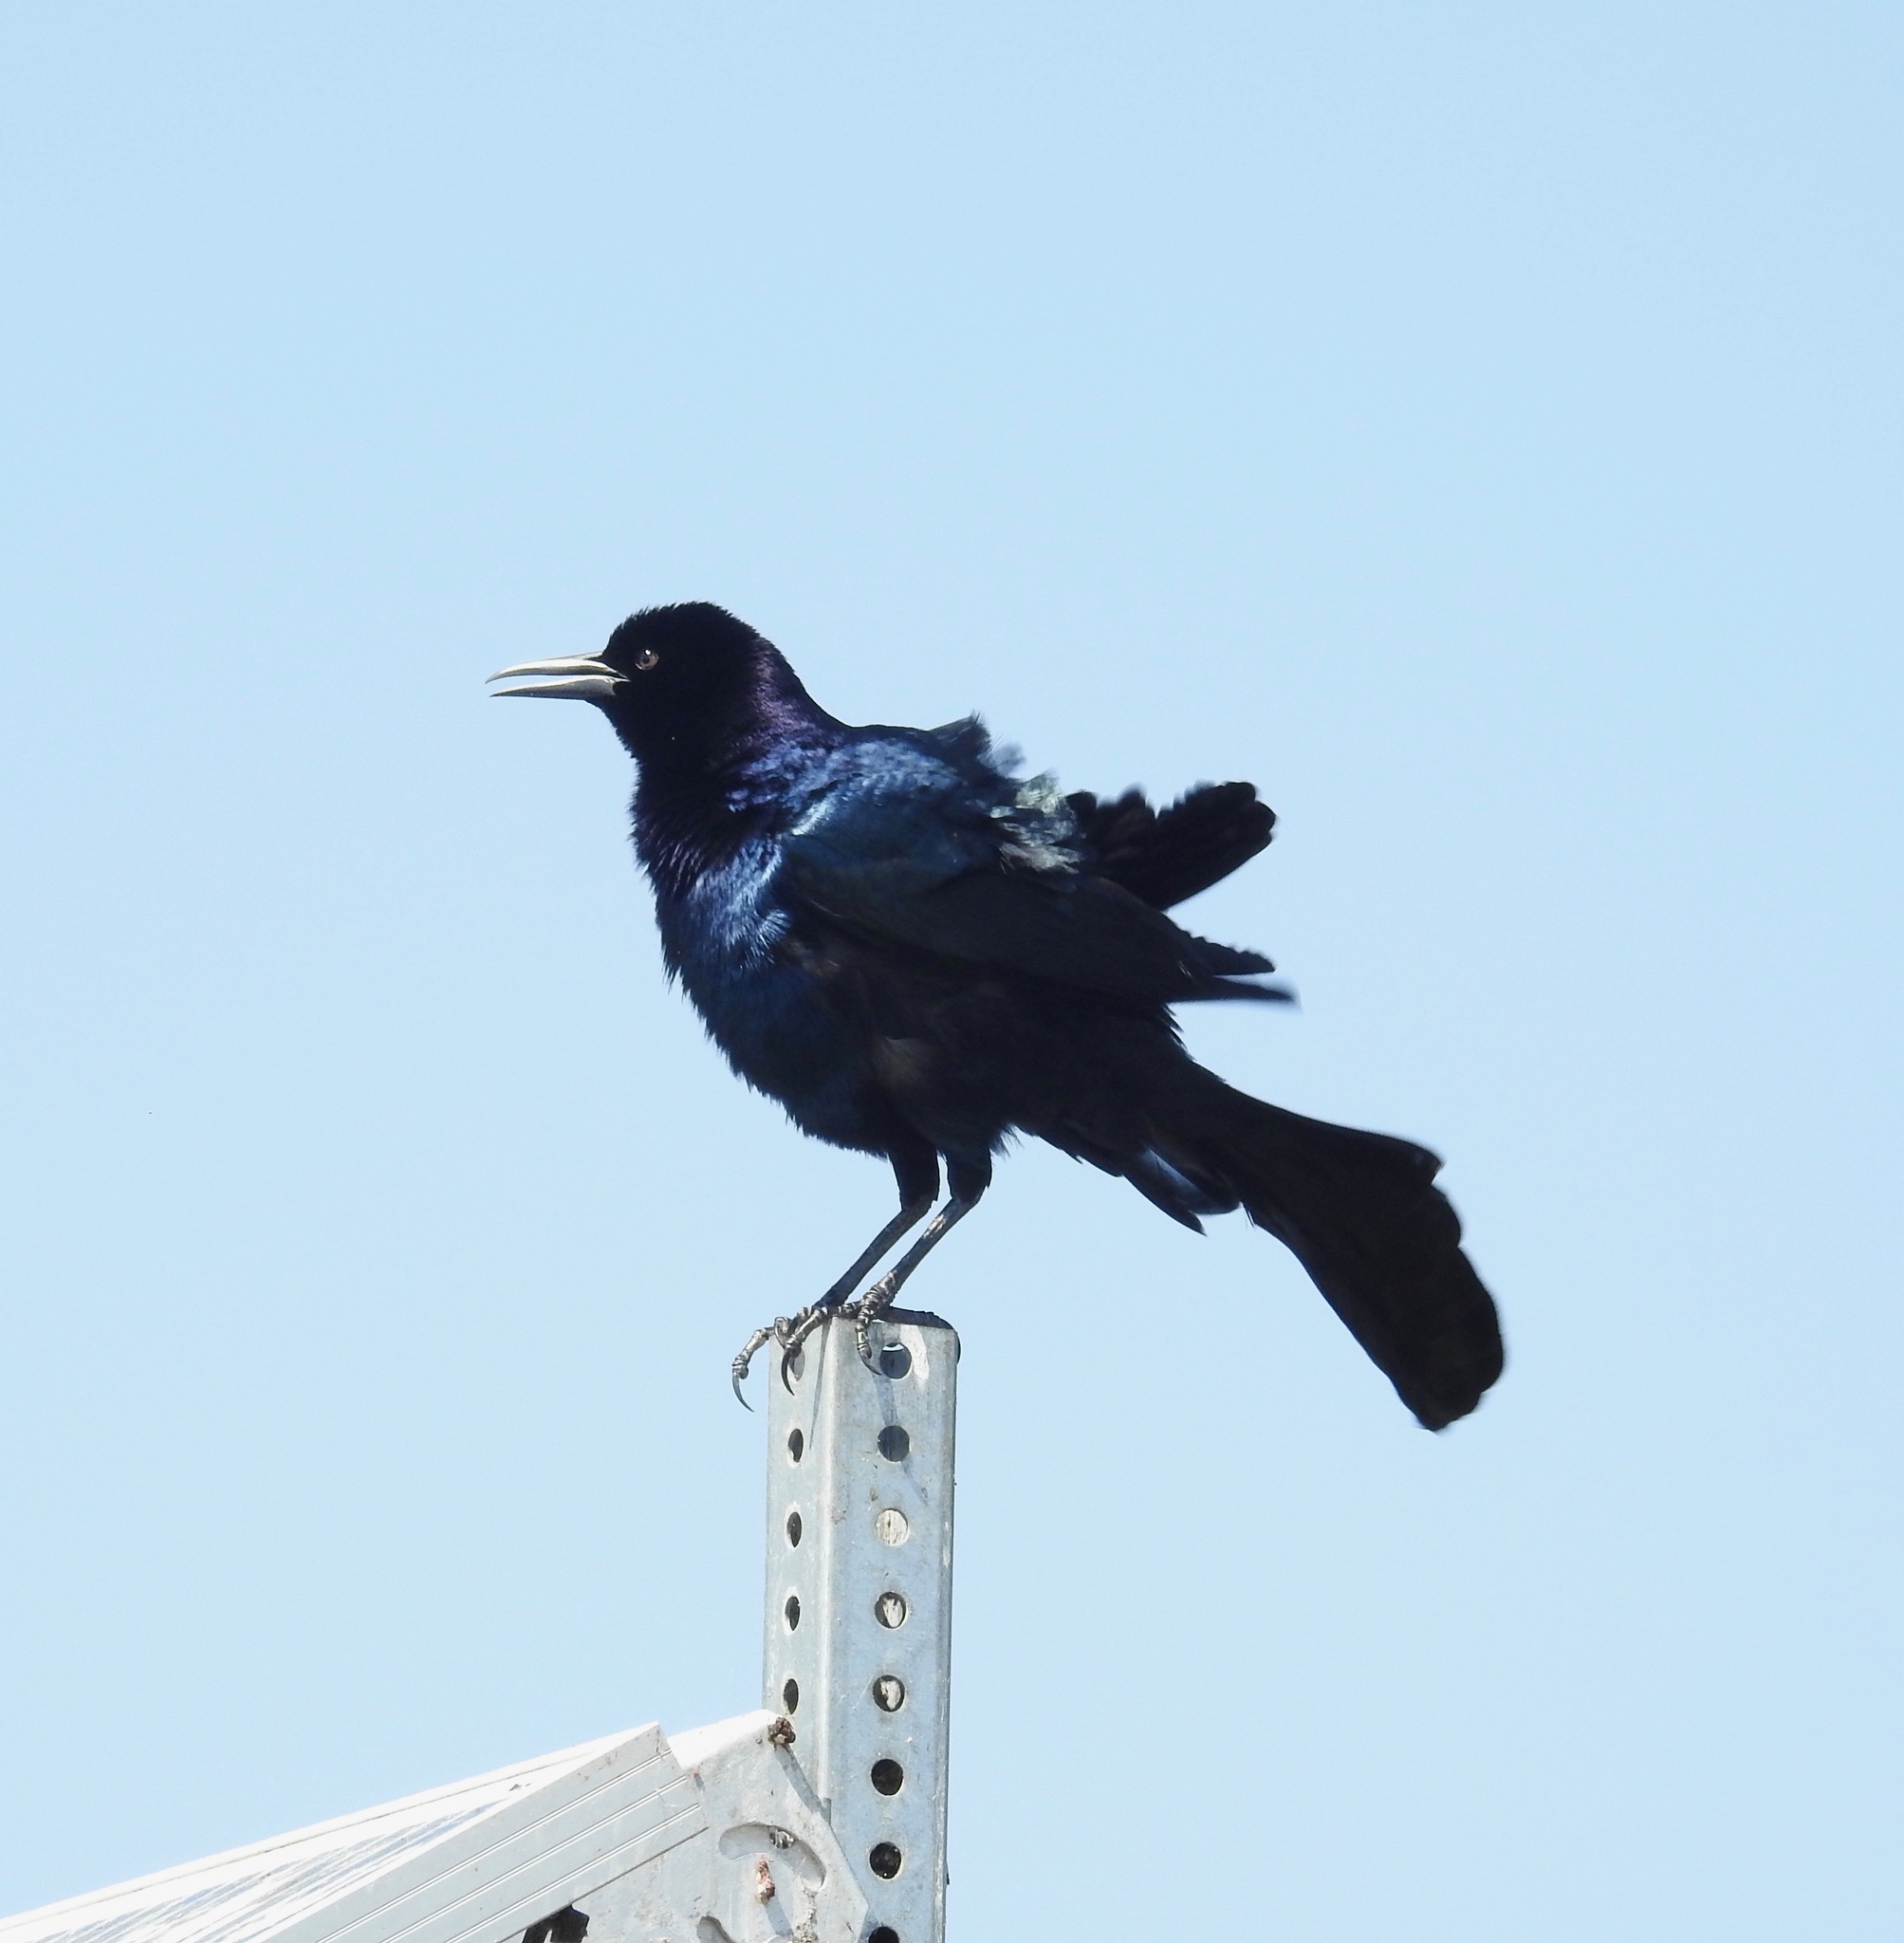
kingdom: Animalia
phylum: Chordata
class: Aves
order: Passeriformes
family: Icteridae
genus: Quiscalus
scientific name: Quiscalus major
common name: Boat-tailed grackle
